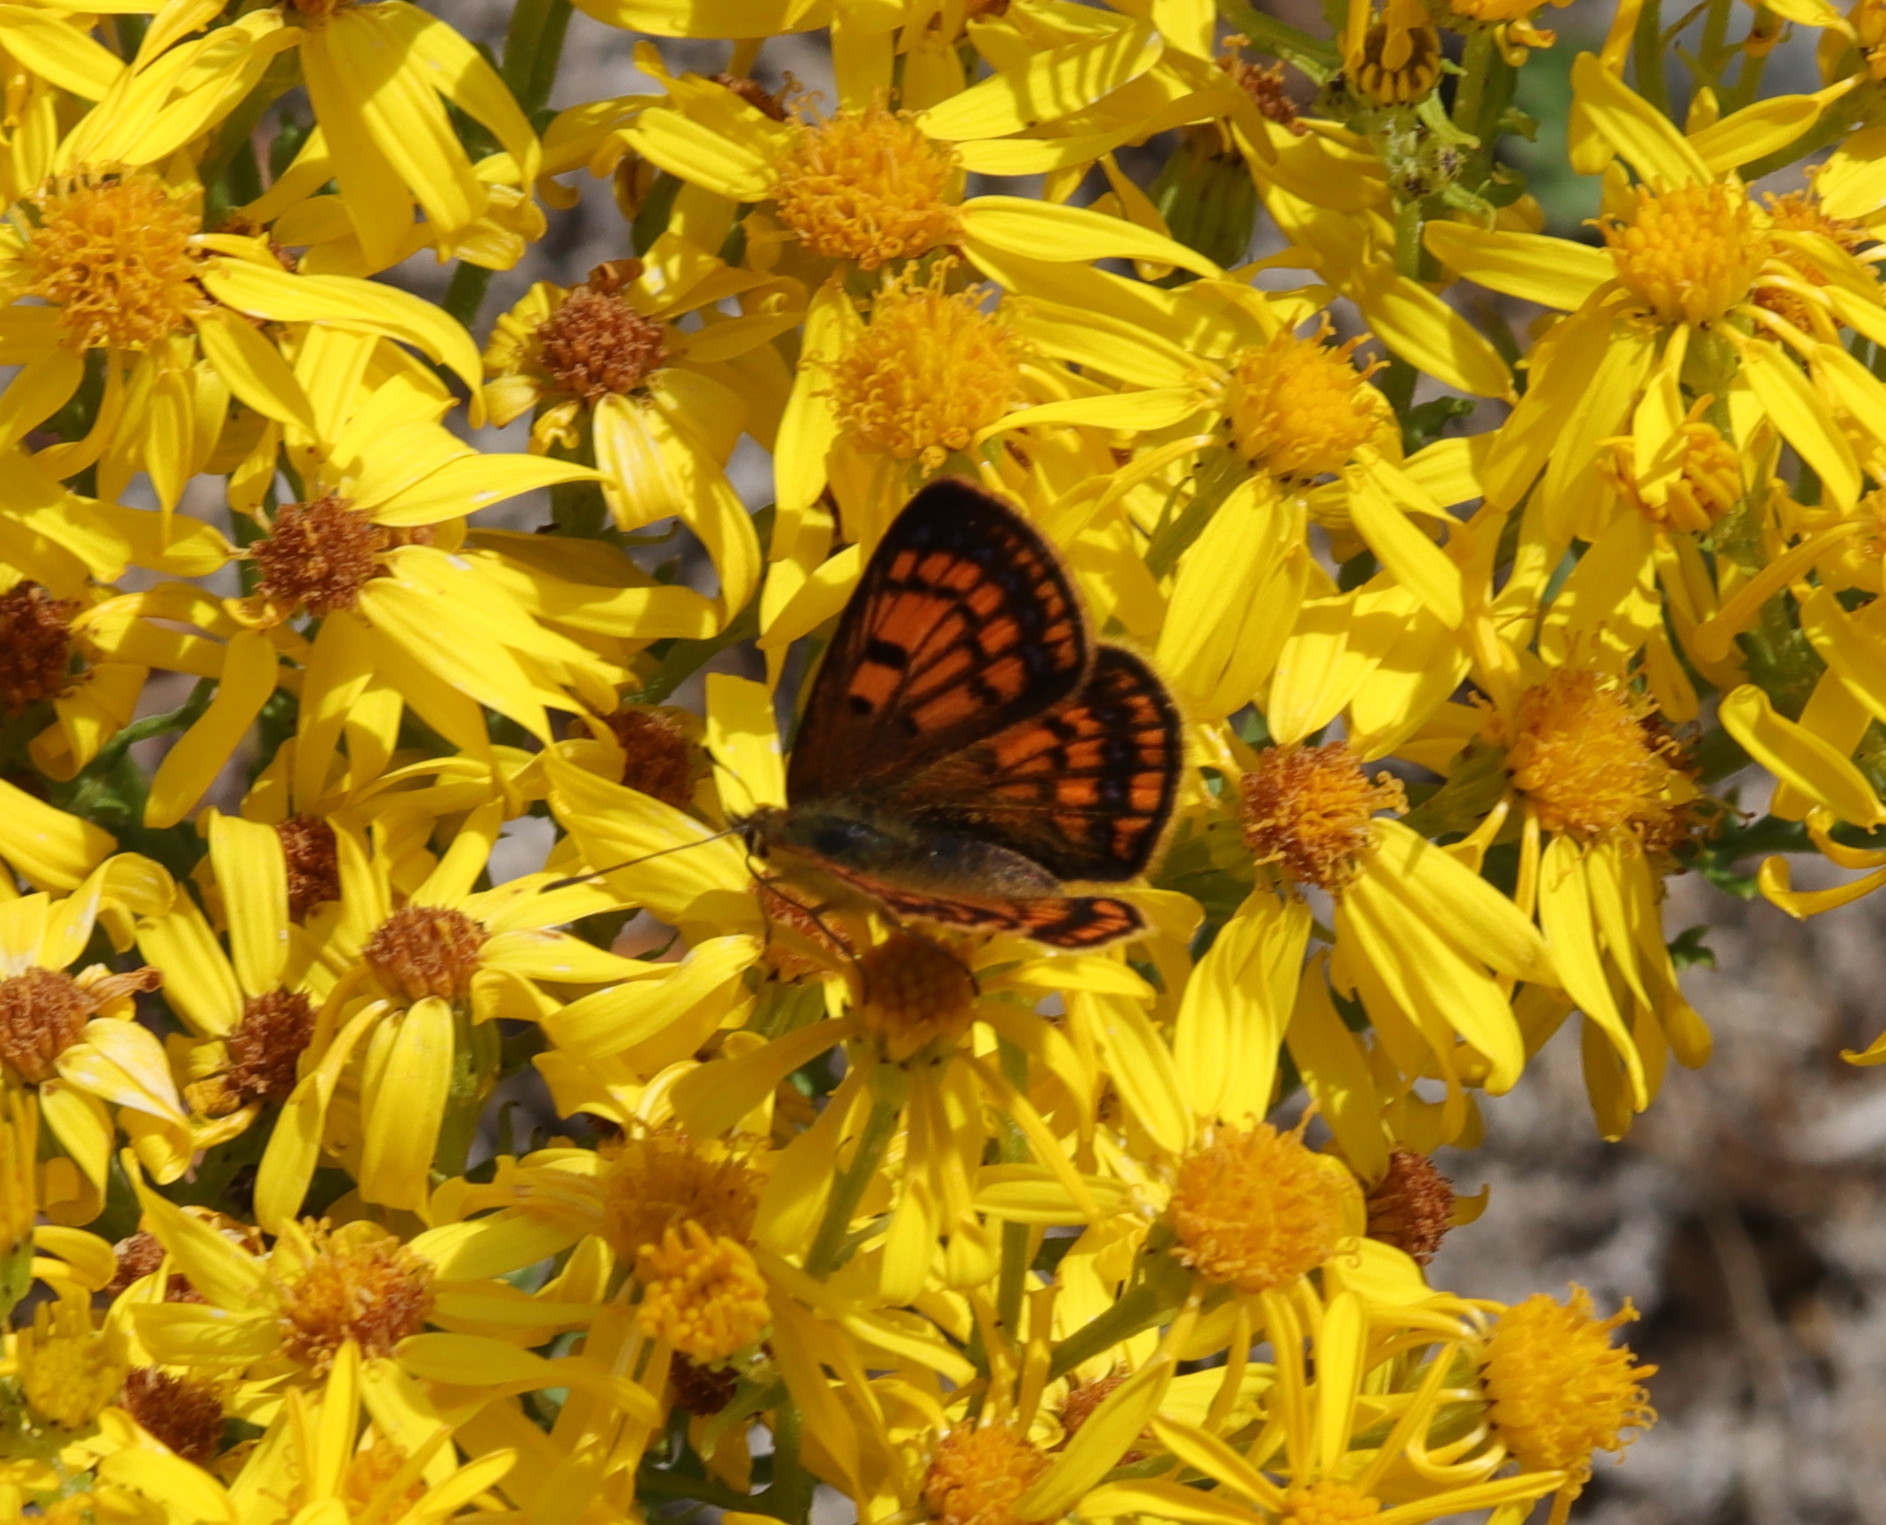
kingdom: Animalia
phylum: Arthropoda
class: Insecta
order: Lepidoptera
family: Lycaenidae
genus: Lycaena
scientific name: Lycaena salustius
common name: North island coastal copper
